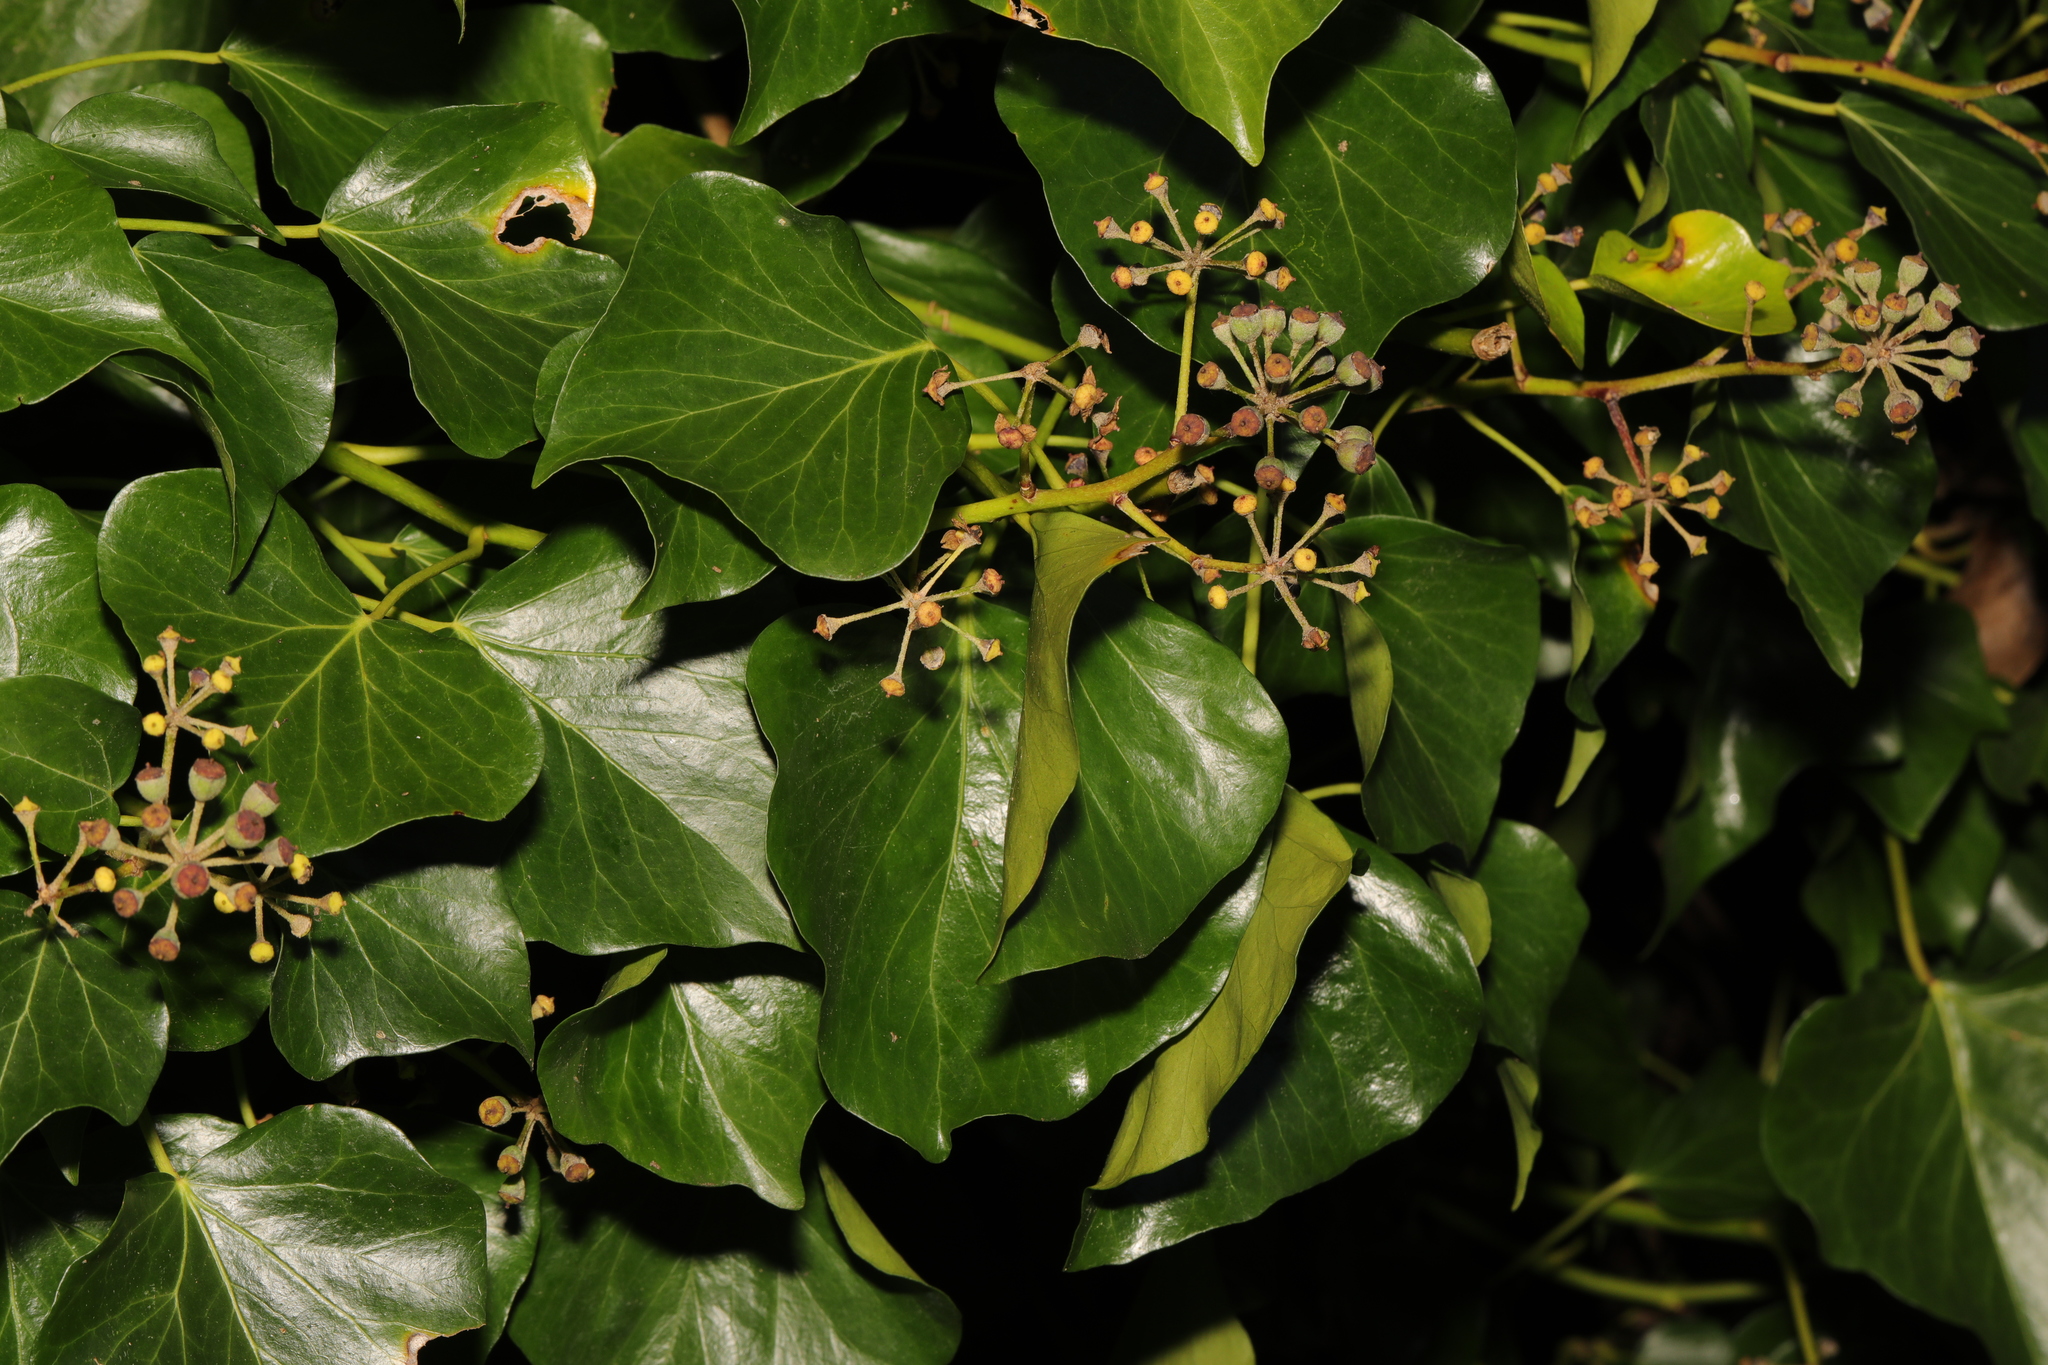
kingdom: Plantae
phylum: Tracheophyta
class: Magnoliopsida
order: Apiales
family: Araliaceae
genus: Hedera
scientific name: Hedera helix
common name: Ivy
